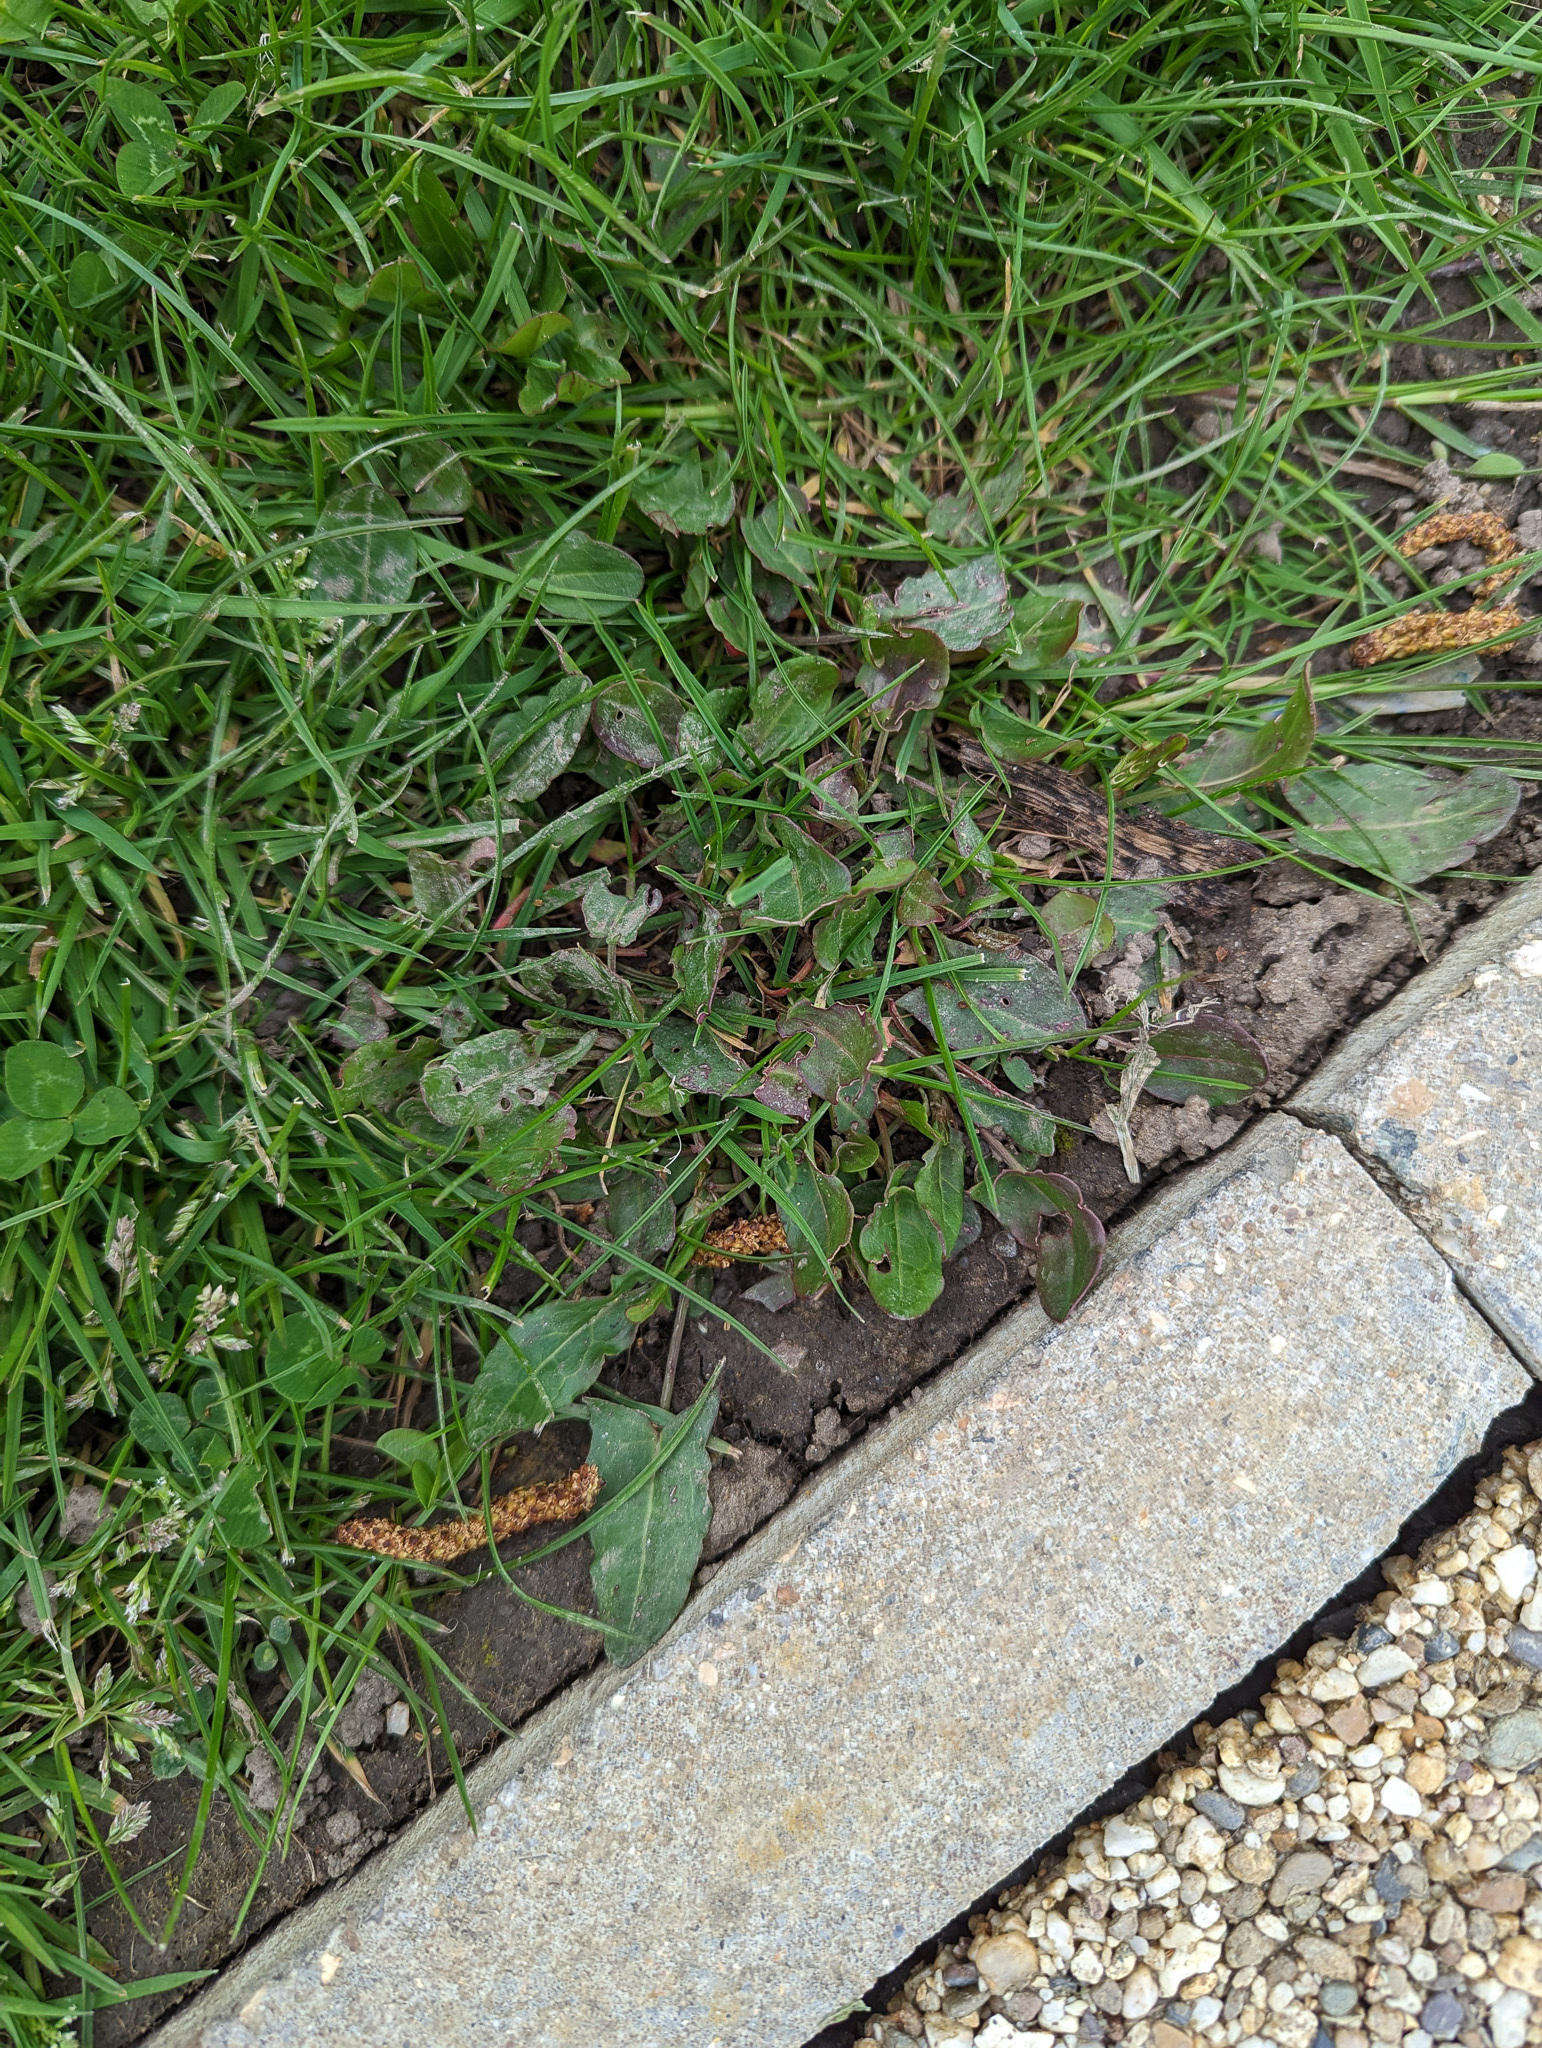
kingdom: Plantae
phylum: Tracheophyta
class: Magnoliopsida
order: Caryophyllales
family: Polygonaceae
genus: Rumex
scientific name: Rumex acetosa
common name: Garden sorrel
